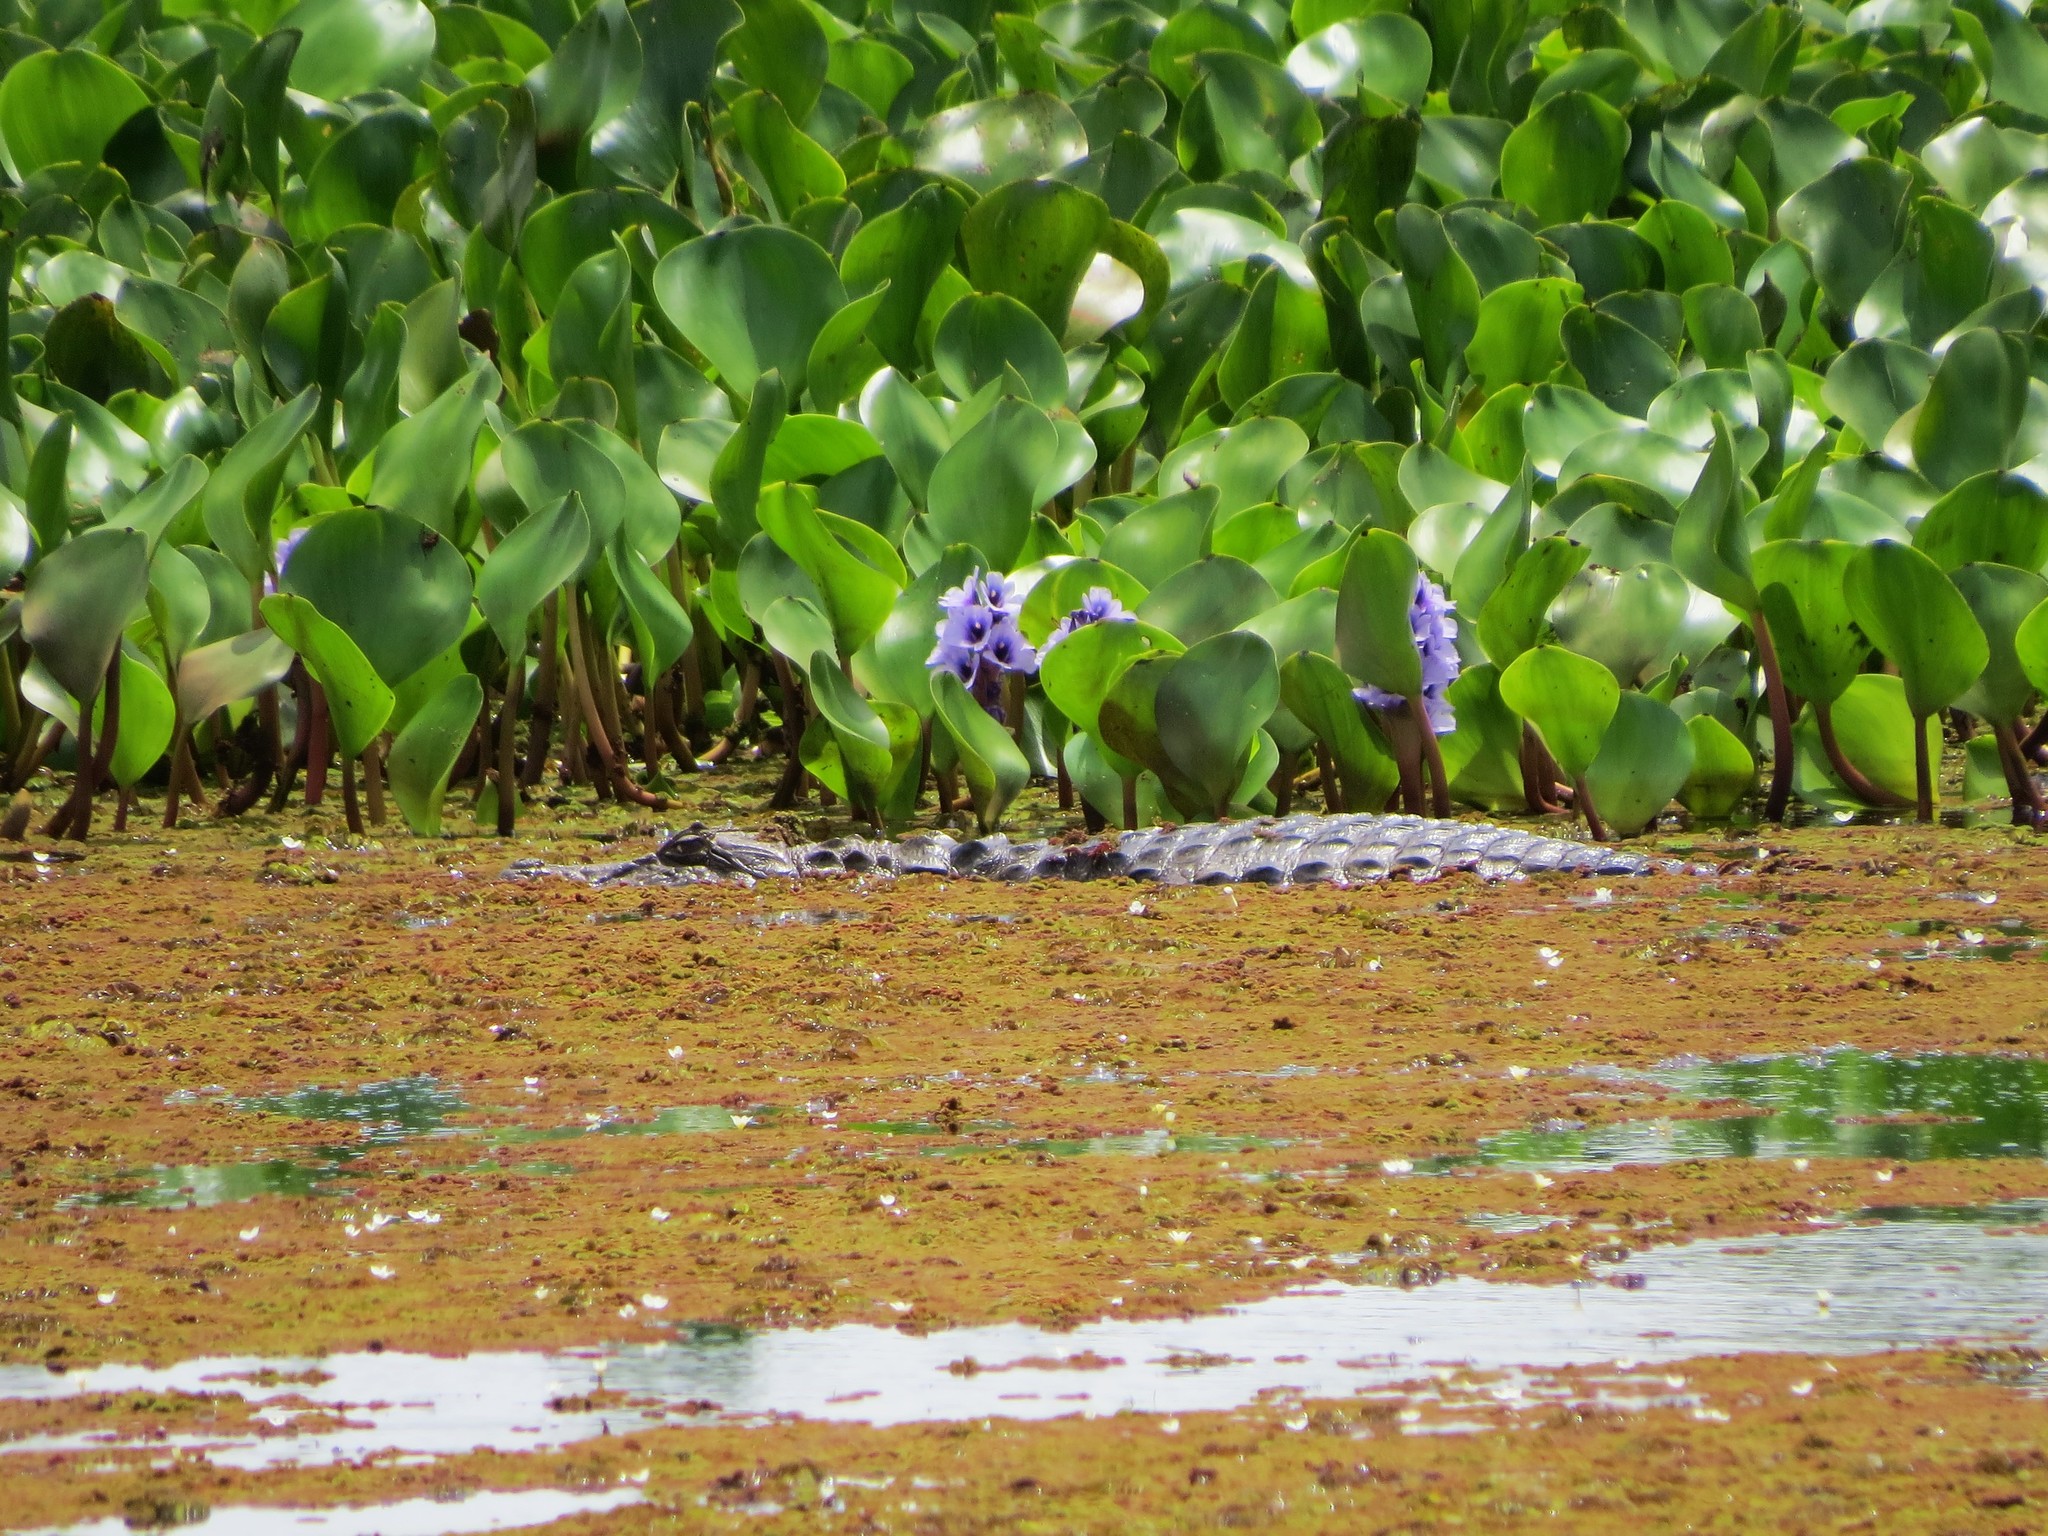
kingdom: Animalia
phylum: Chordata
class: Crocodylia
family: Alligatoridae
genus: Caiman
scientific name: Caiman latirostris
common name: Broad-snouted caiman
